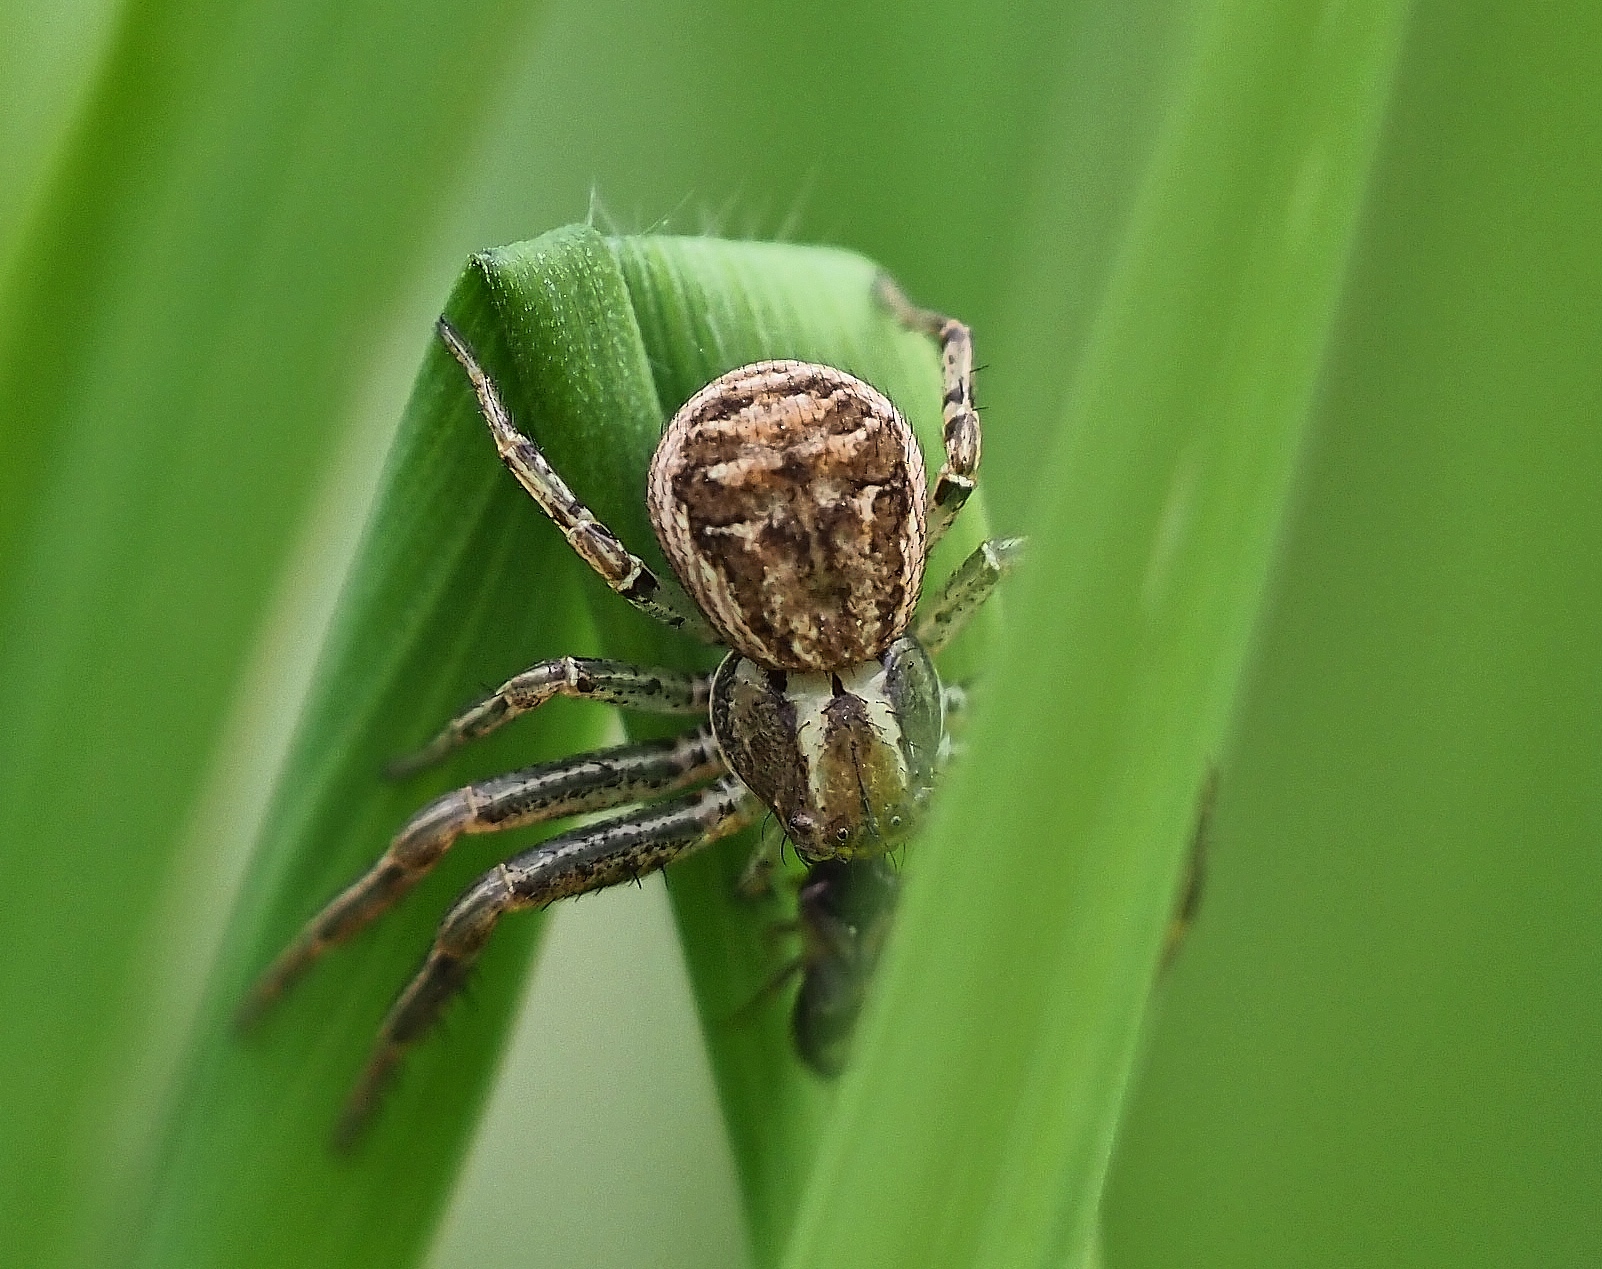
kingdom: Animalia
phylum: Arthropoda
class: Arachnida
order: Araneae
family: Thomisidae
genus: Xysticus
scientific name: Xysticus
